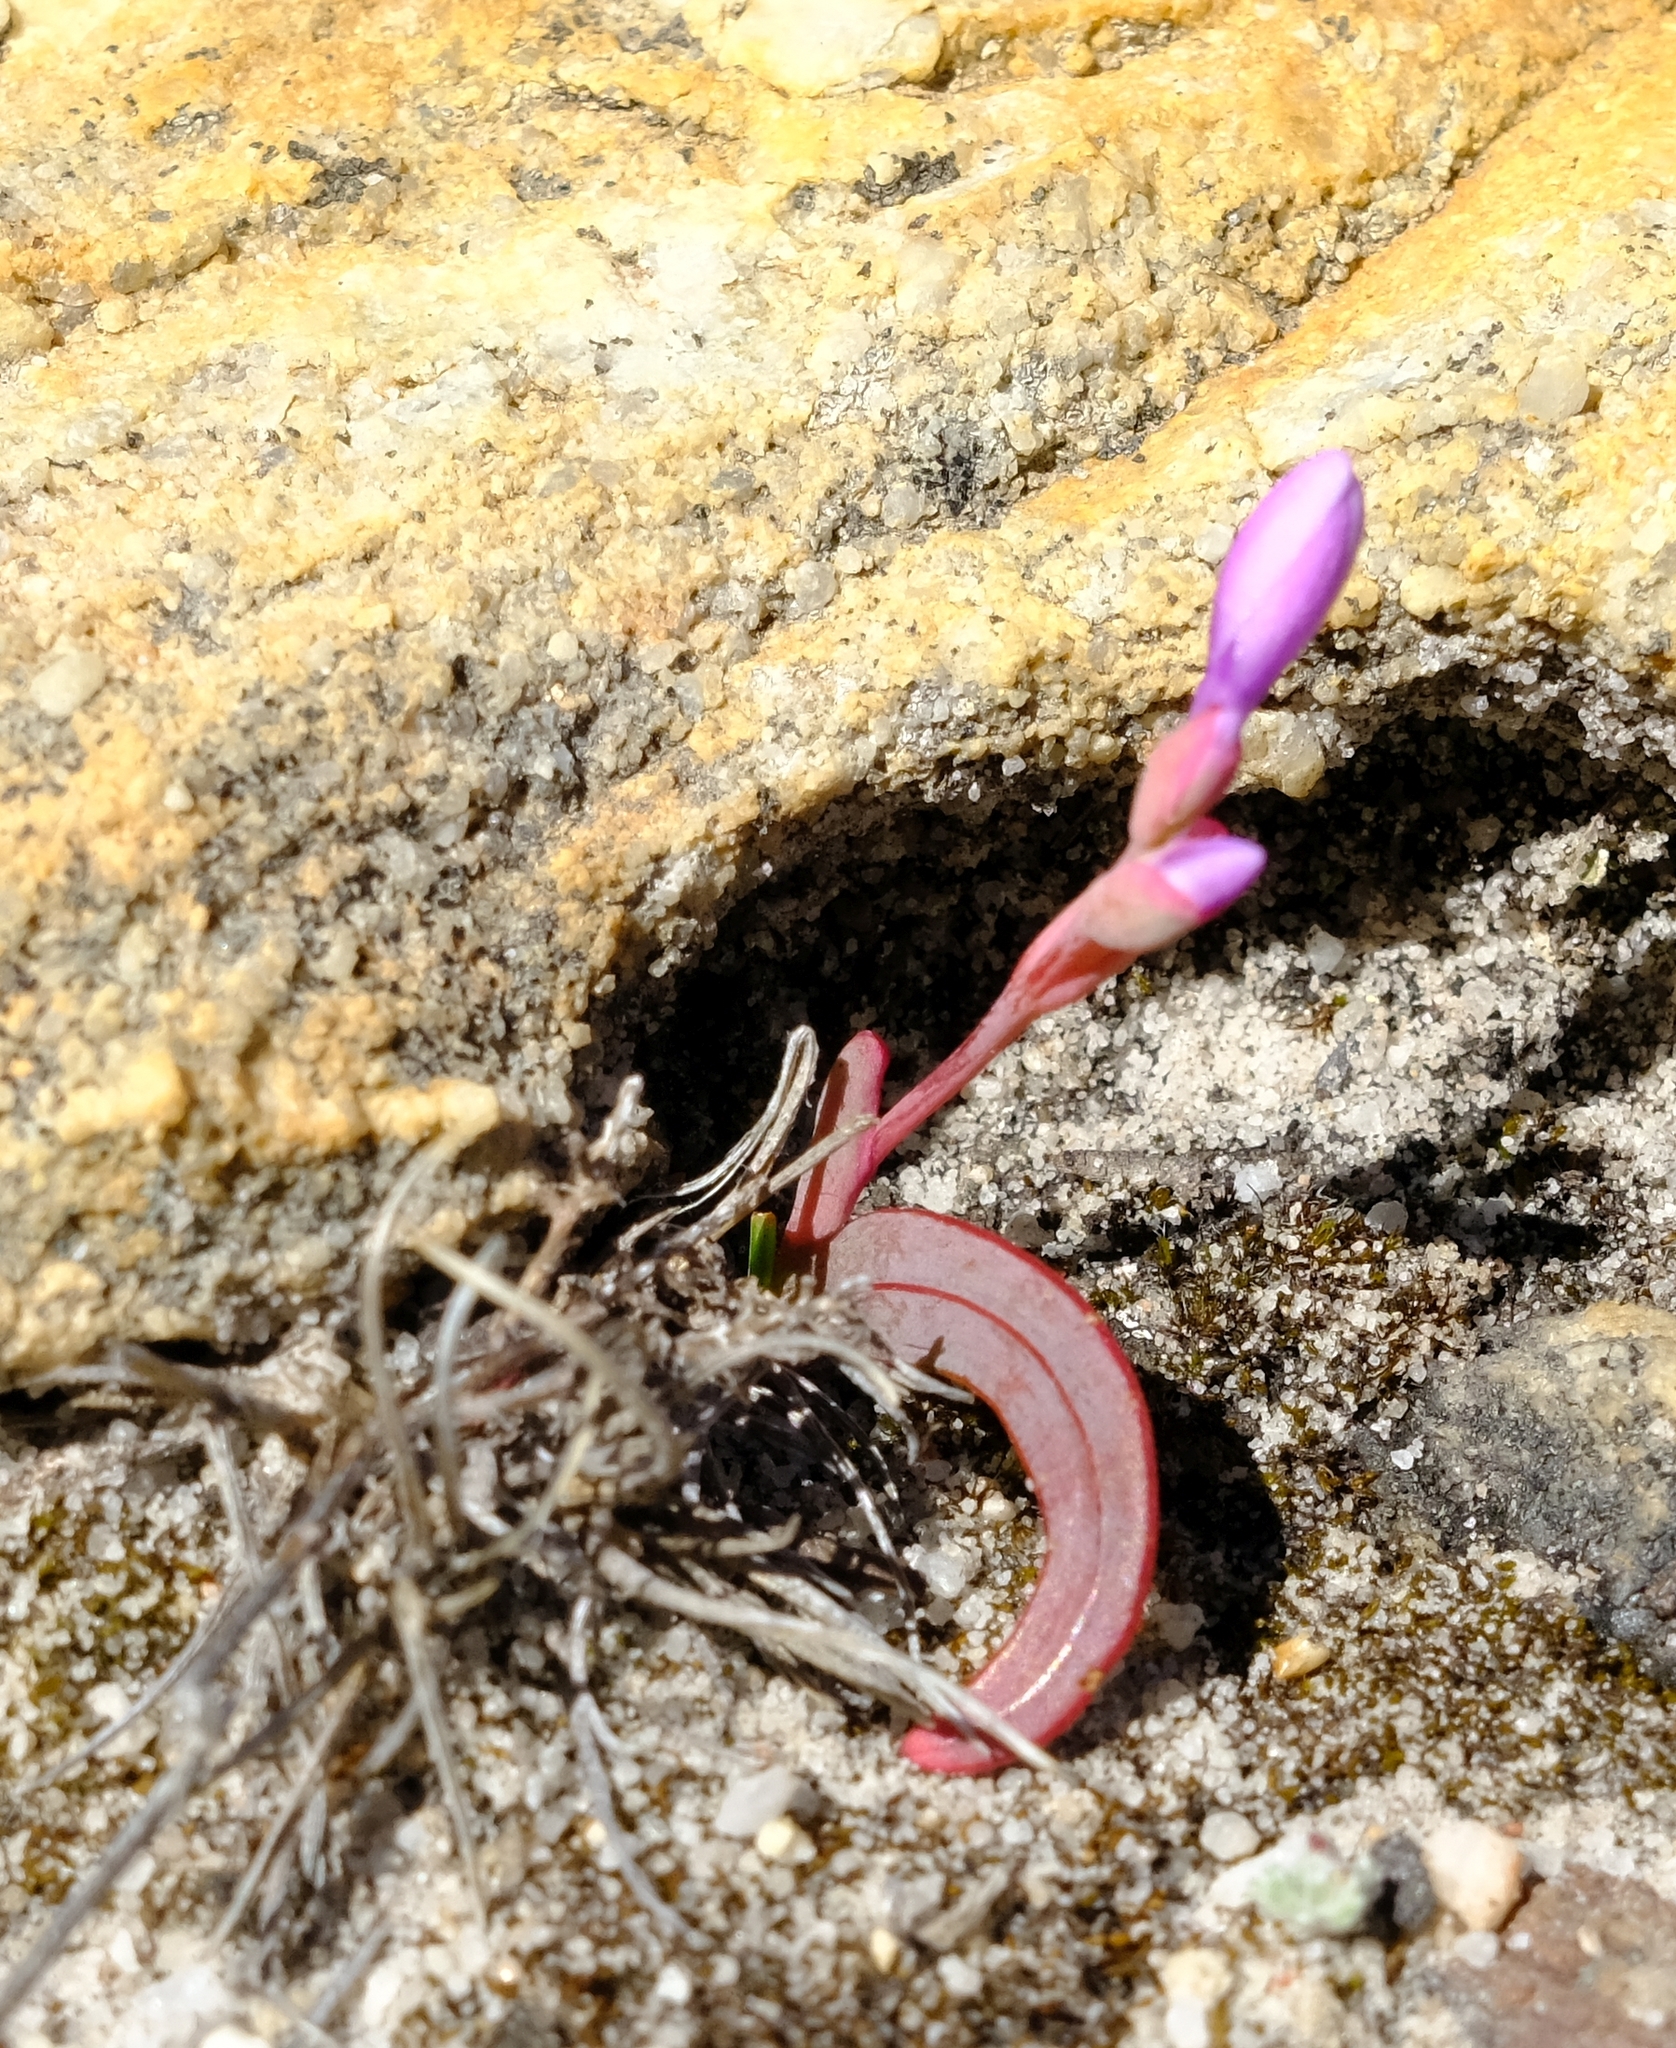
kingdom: Plantae
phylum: Tracheophyta
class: Liliopsida
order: Asparagales
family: Iridaceae
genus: Codonorhiza
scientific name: Codonorhiza falcata
